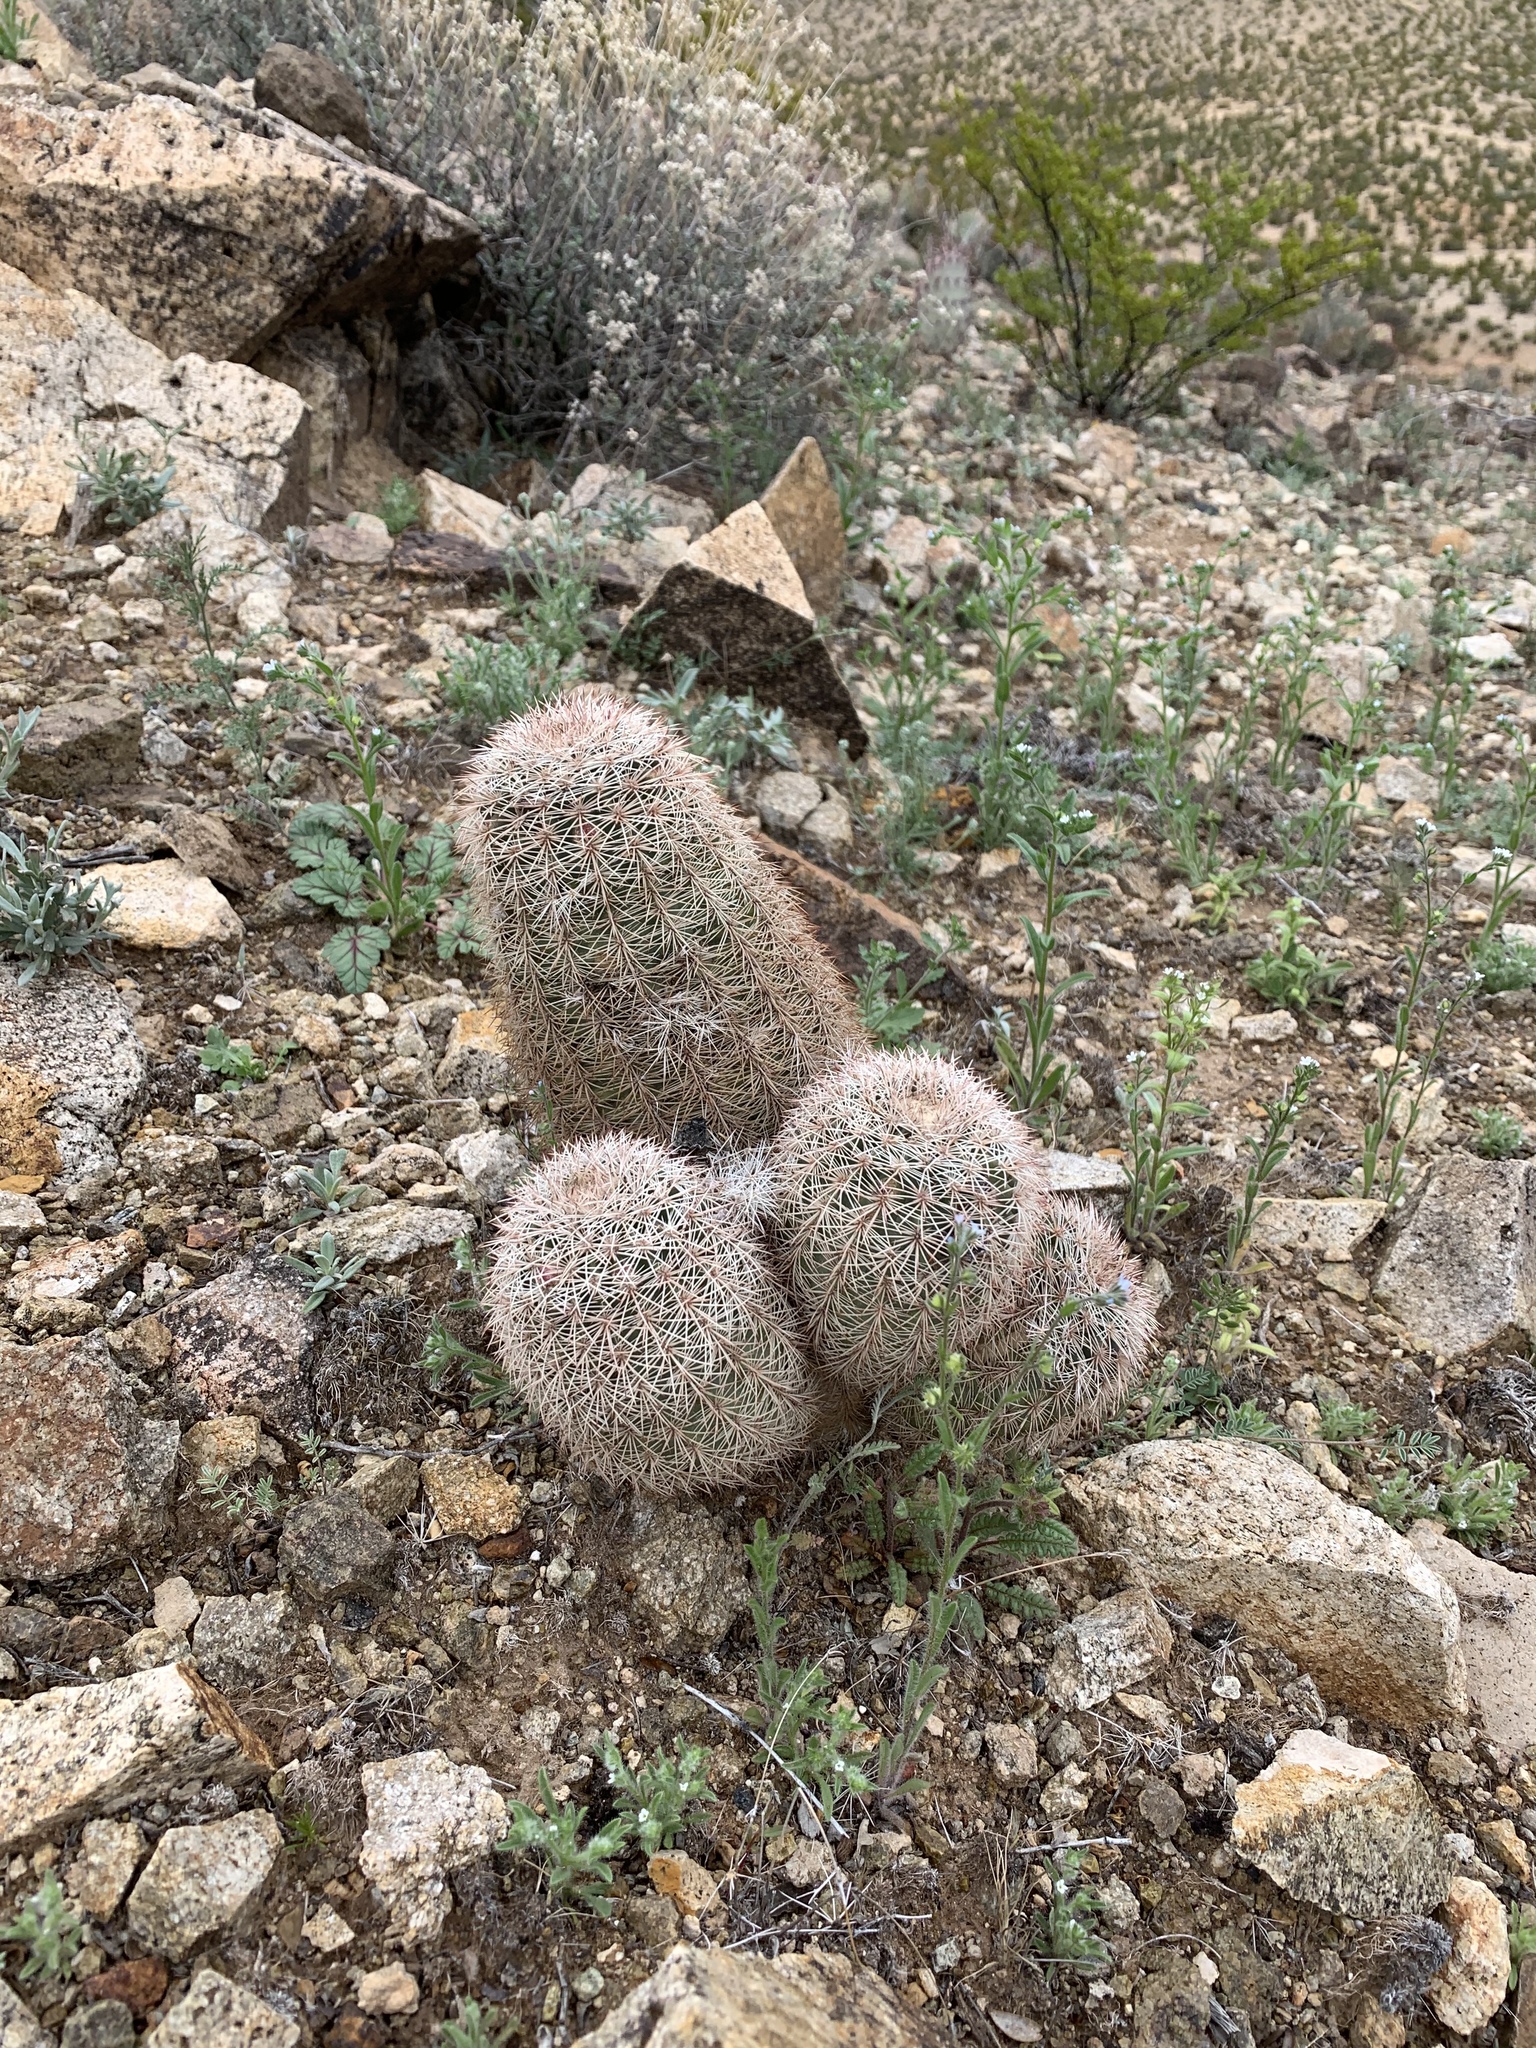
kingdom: Plantae
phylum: Tracheophyta
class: Magnoliopsida
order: Caryophyllales
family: Cactaceae
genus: Echinocereus
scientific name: Echinocereus dasyacanthus
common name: Spiny hedgehog cactus
